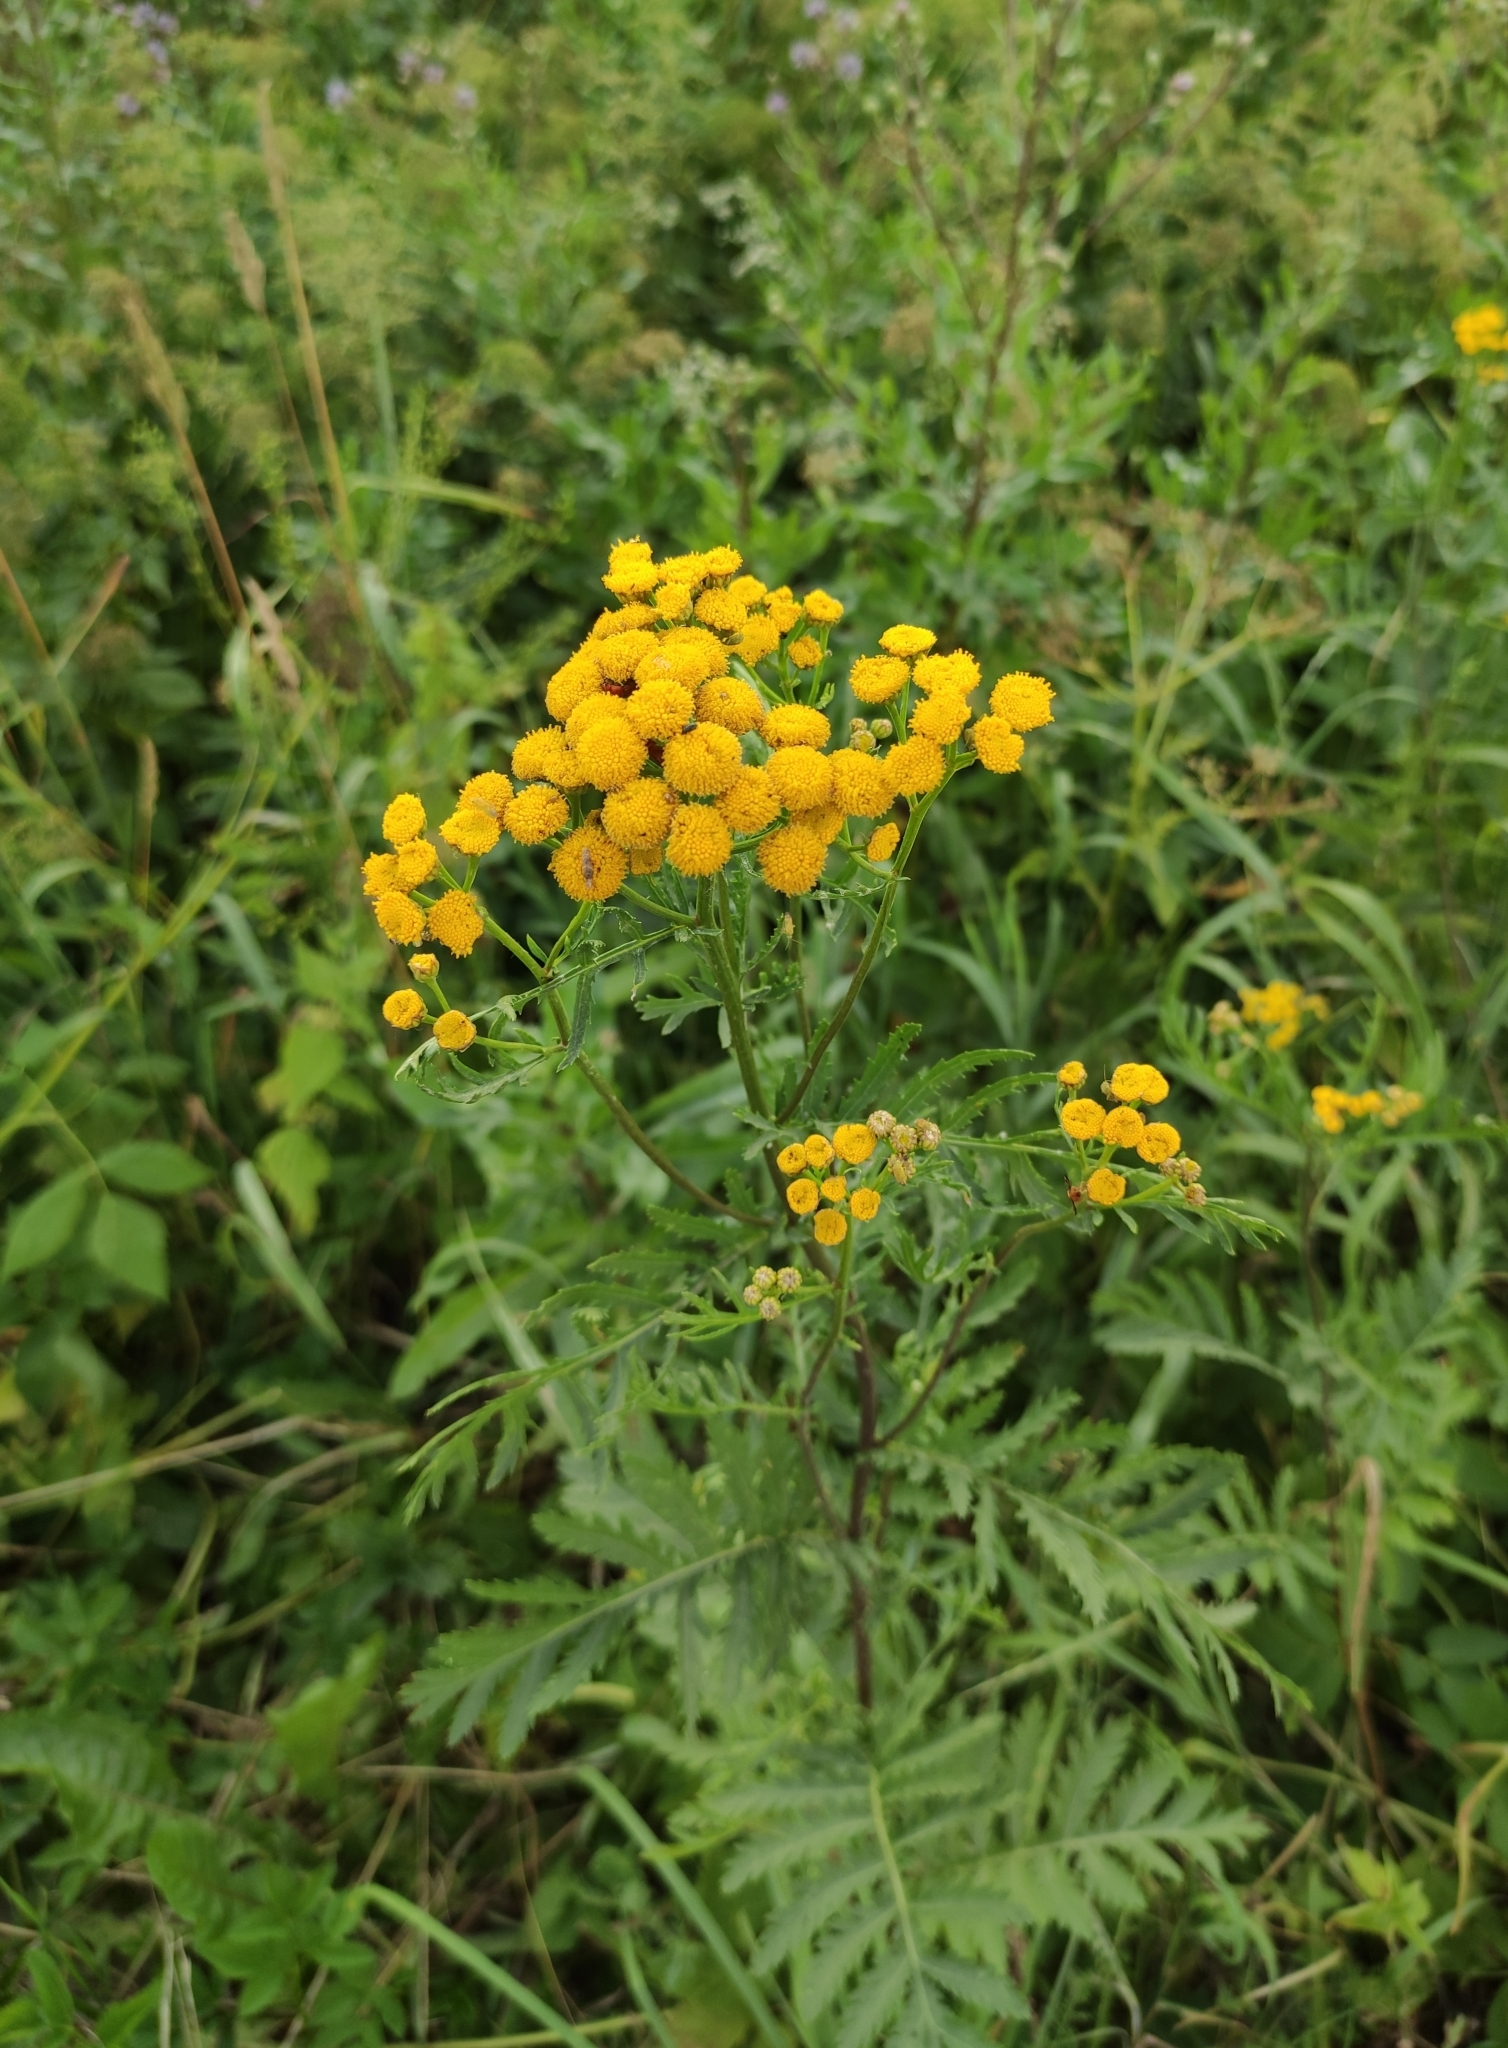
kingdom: Plantae
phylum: Tracheophyta
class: Magnoliopsida
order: Asterales
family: Asteraceae
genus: Tanacetum
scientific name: Tanacetum vulgare
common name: Common tansy
